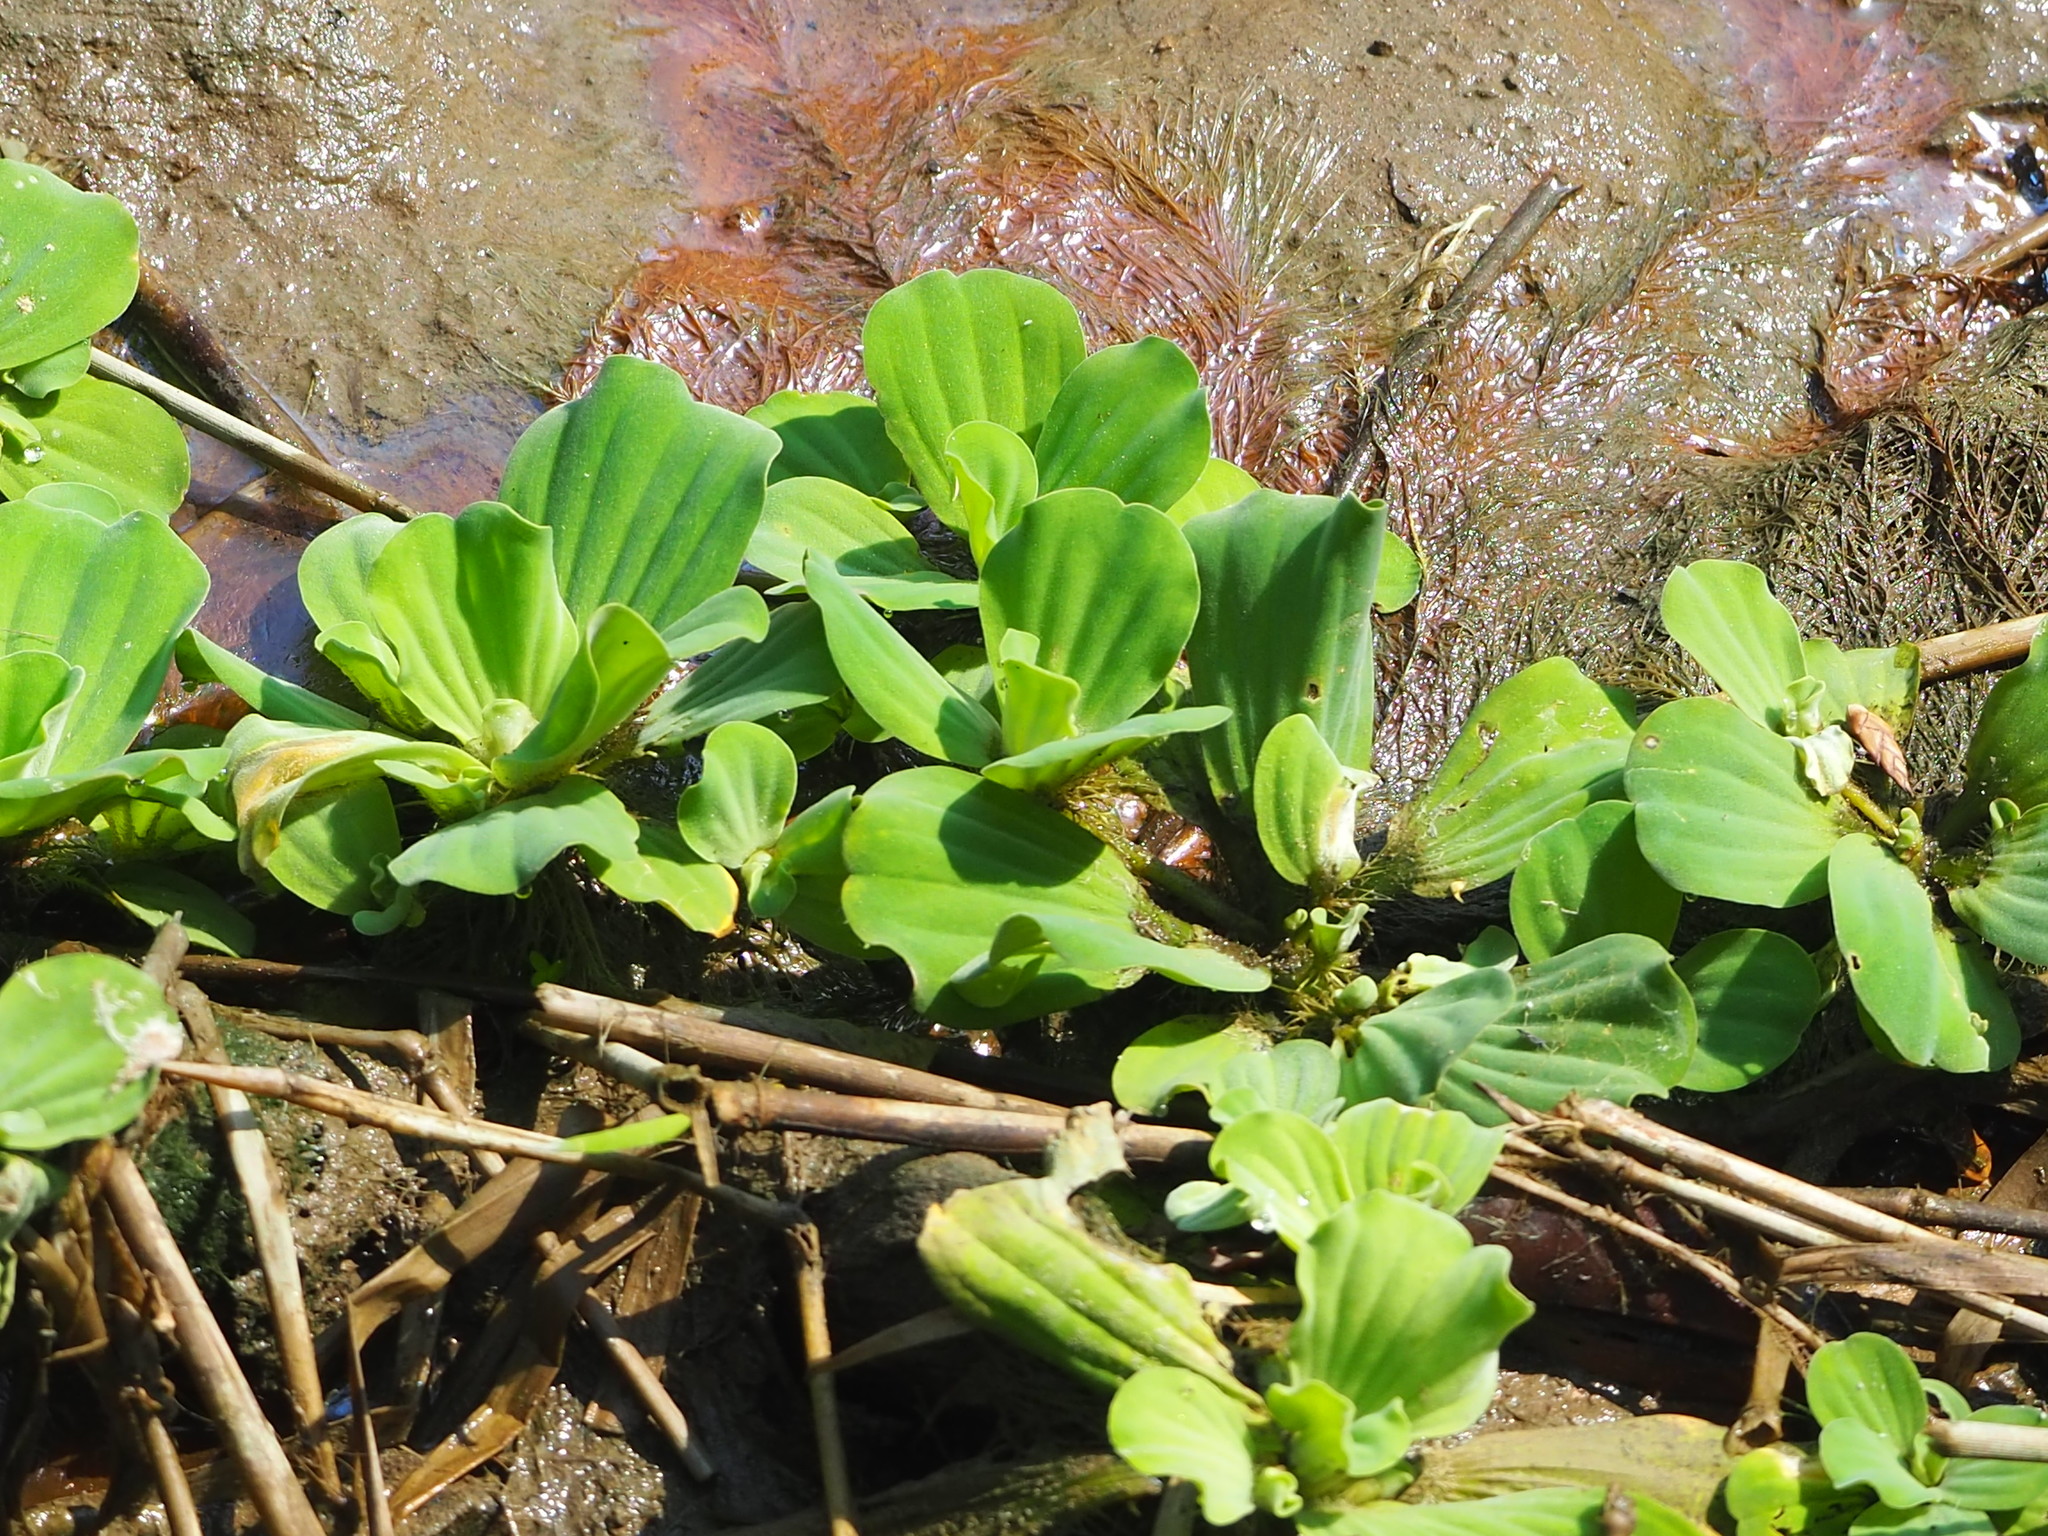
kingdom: Plantae
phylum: Tracheophyta
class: Liliopsida
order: Alismatales
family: Araceae
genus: Pistia
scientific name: Pistia stratiotes
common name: Water lettuce
